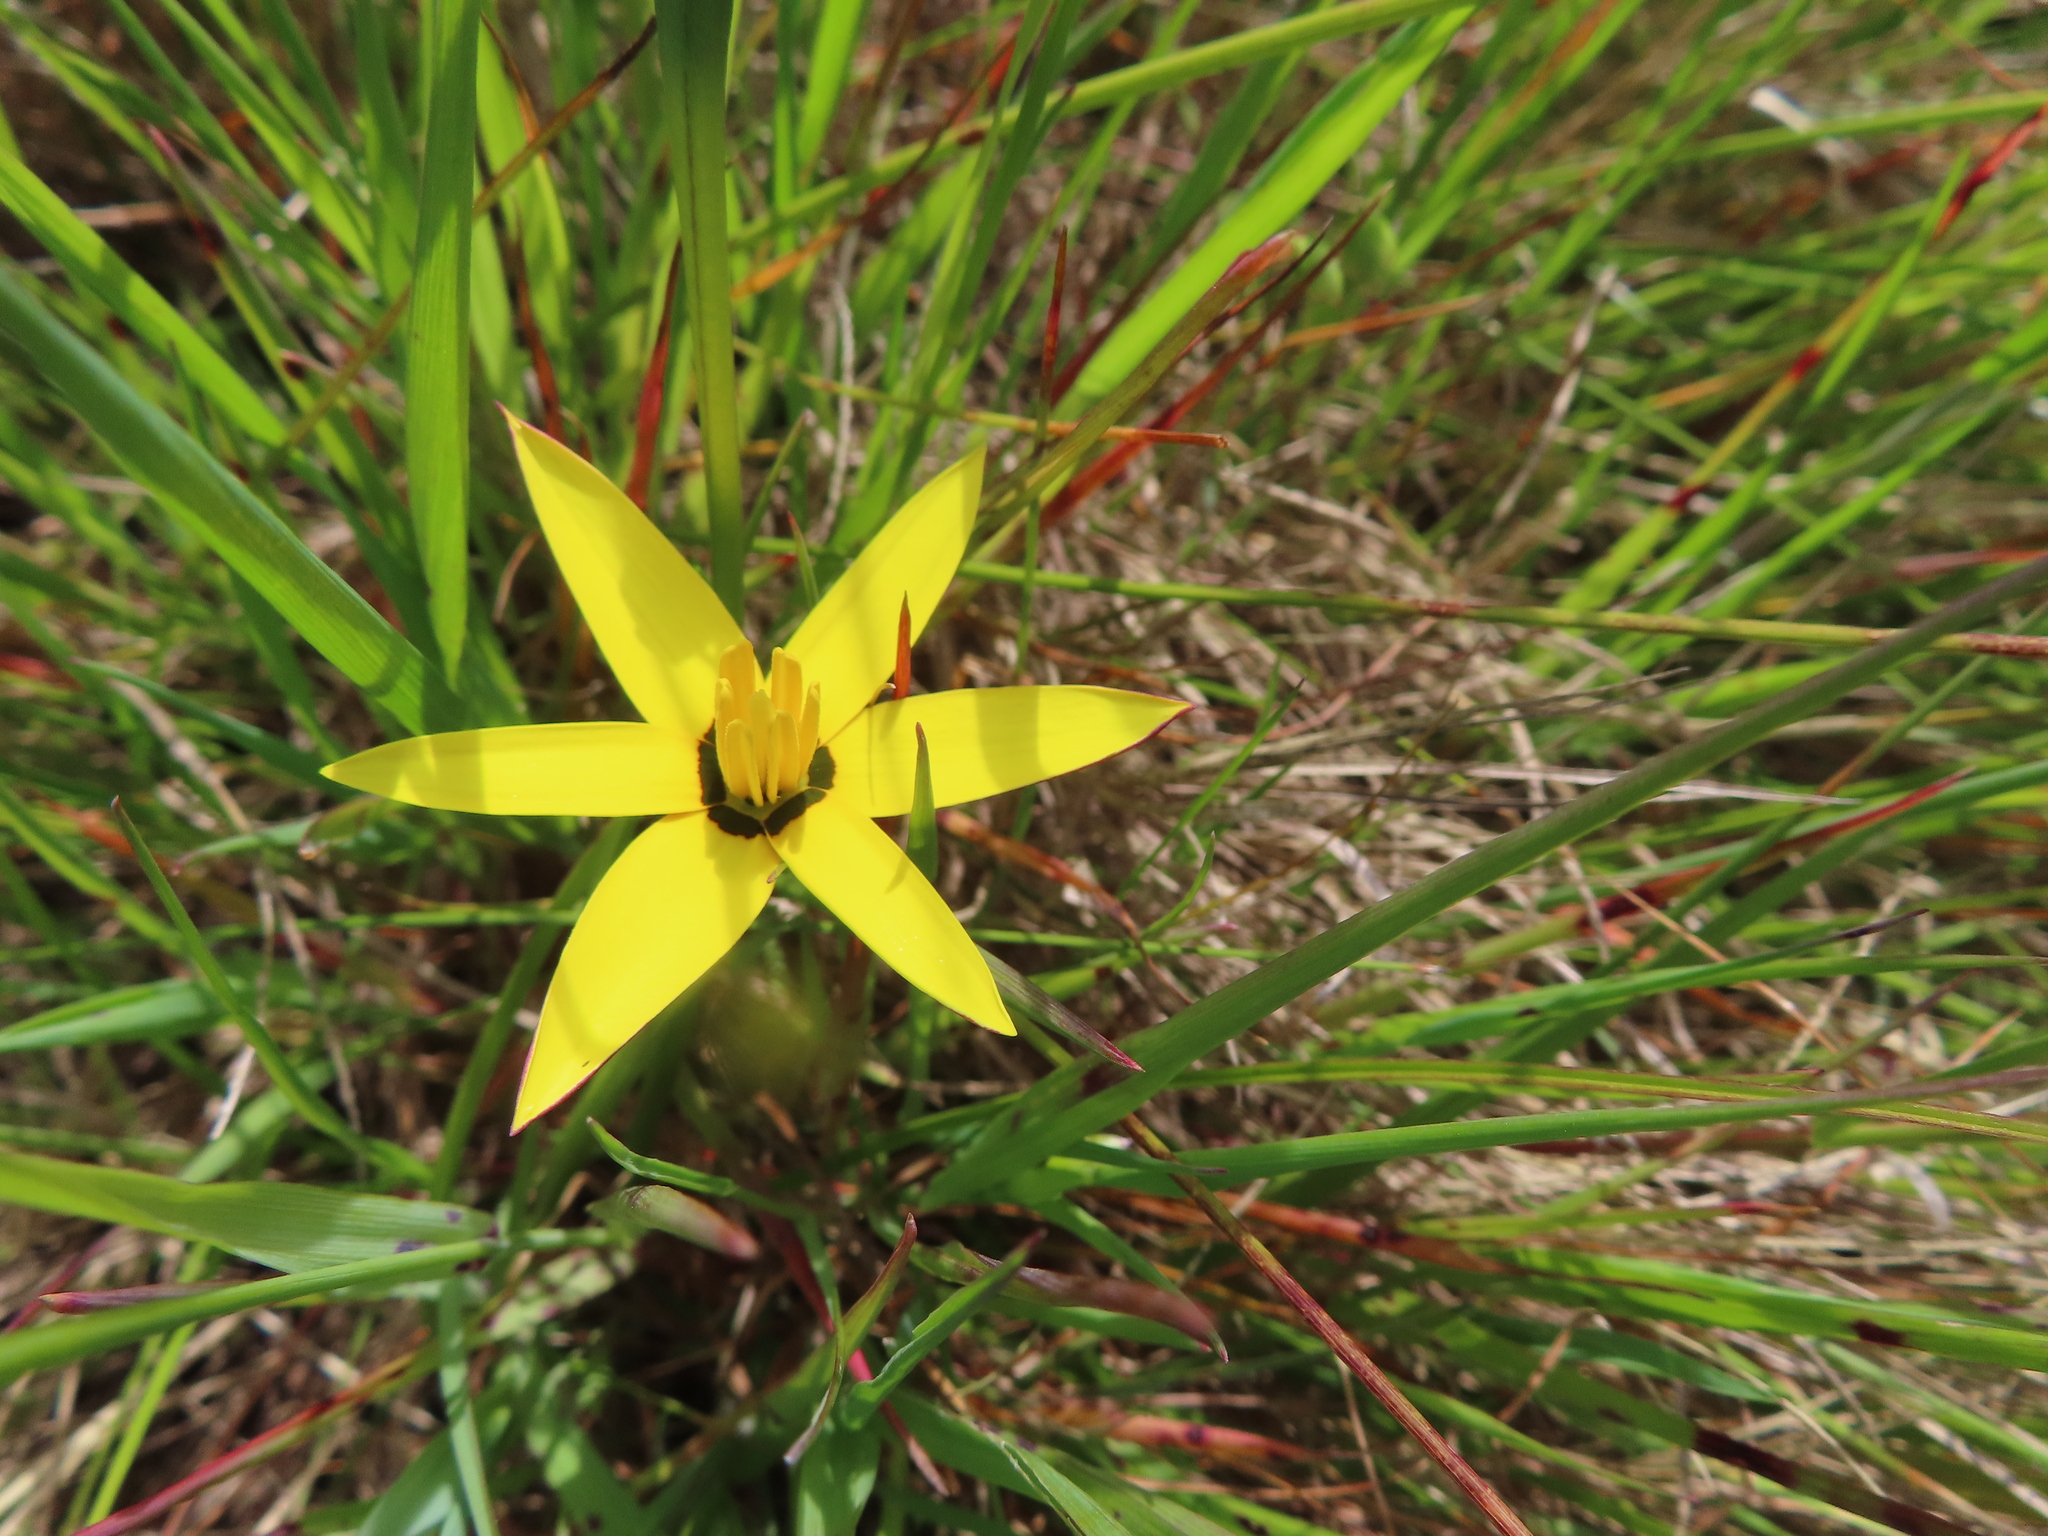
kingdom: Plantae
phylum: Tracheophyta
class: Liliopsida
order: Asparagales
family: Hypoxidaceae
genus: Pauridia
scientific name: Pauridia capensis
